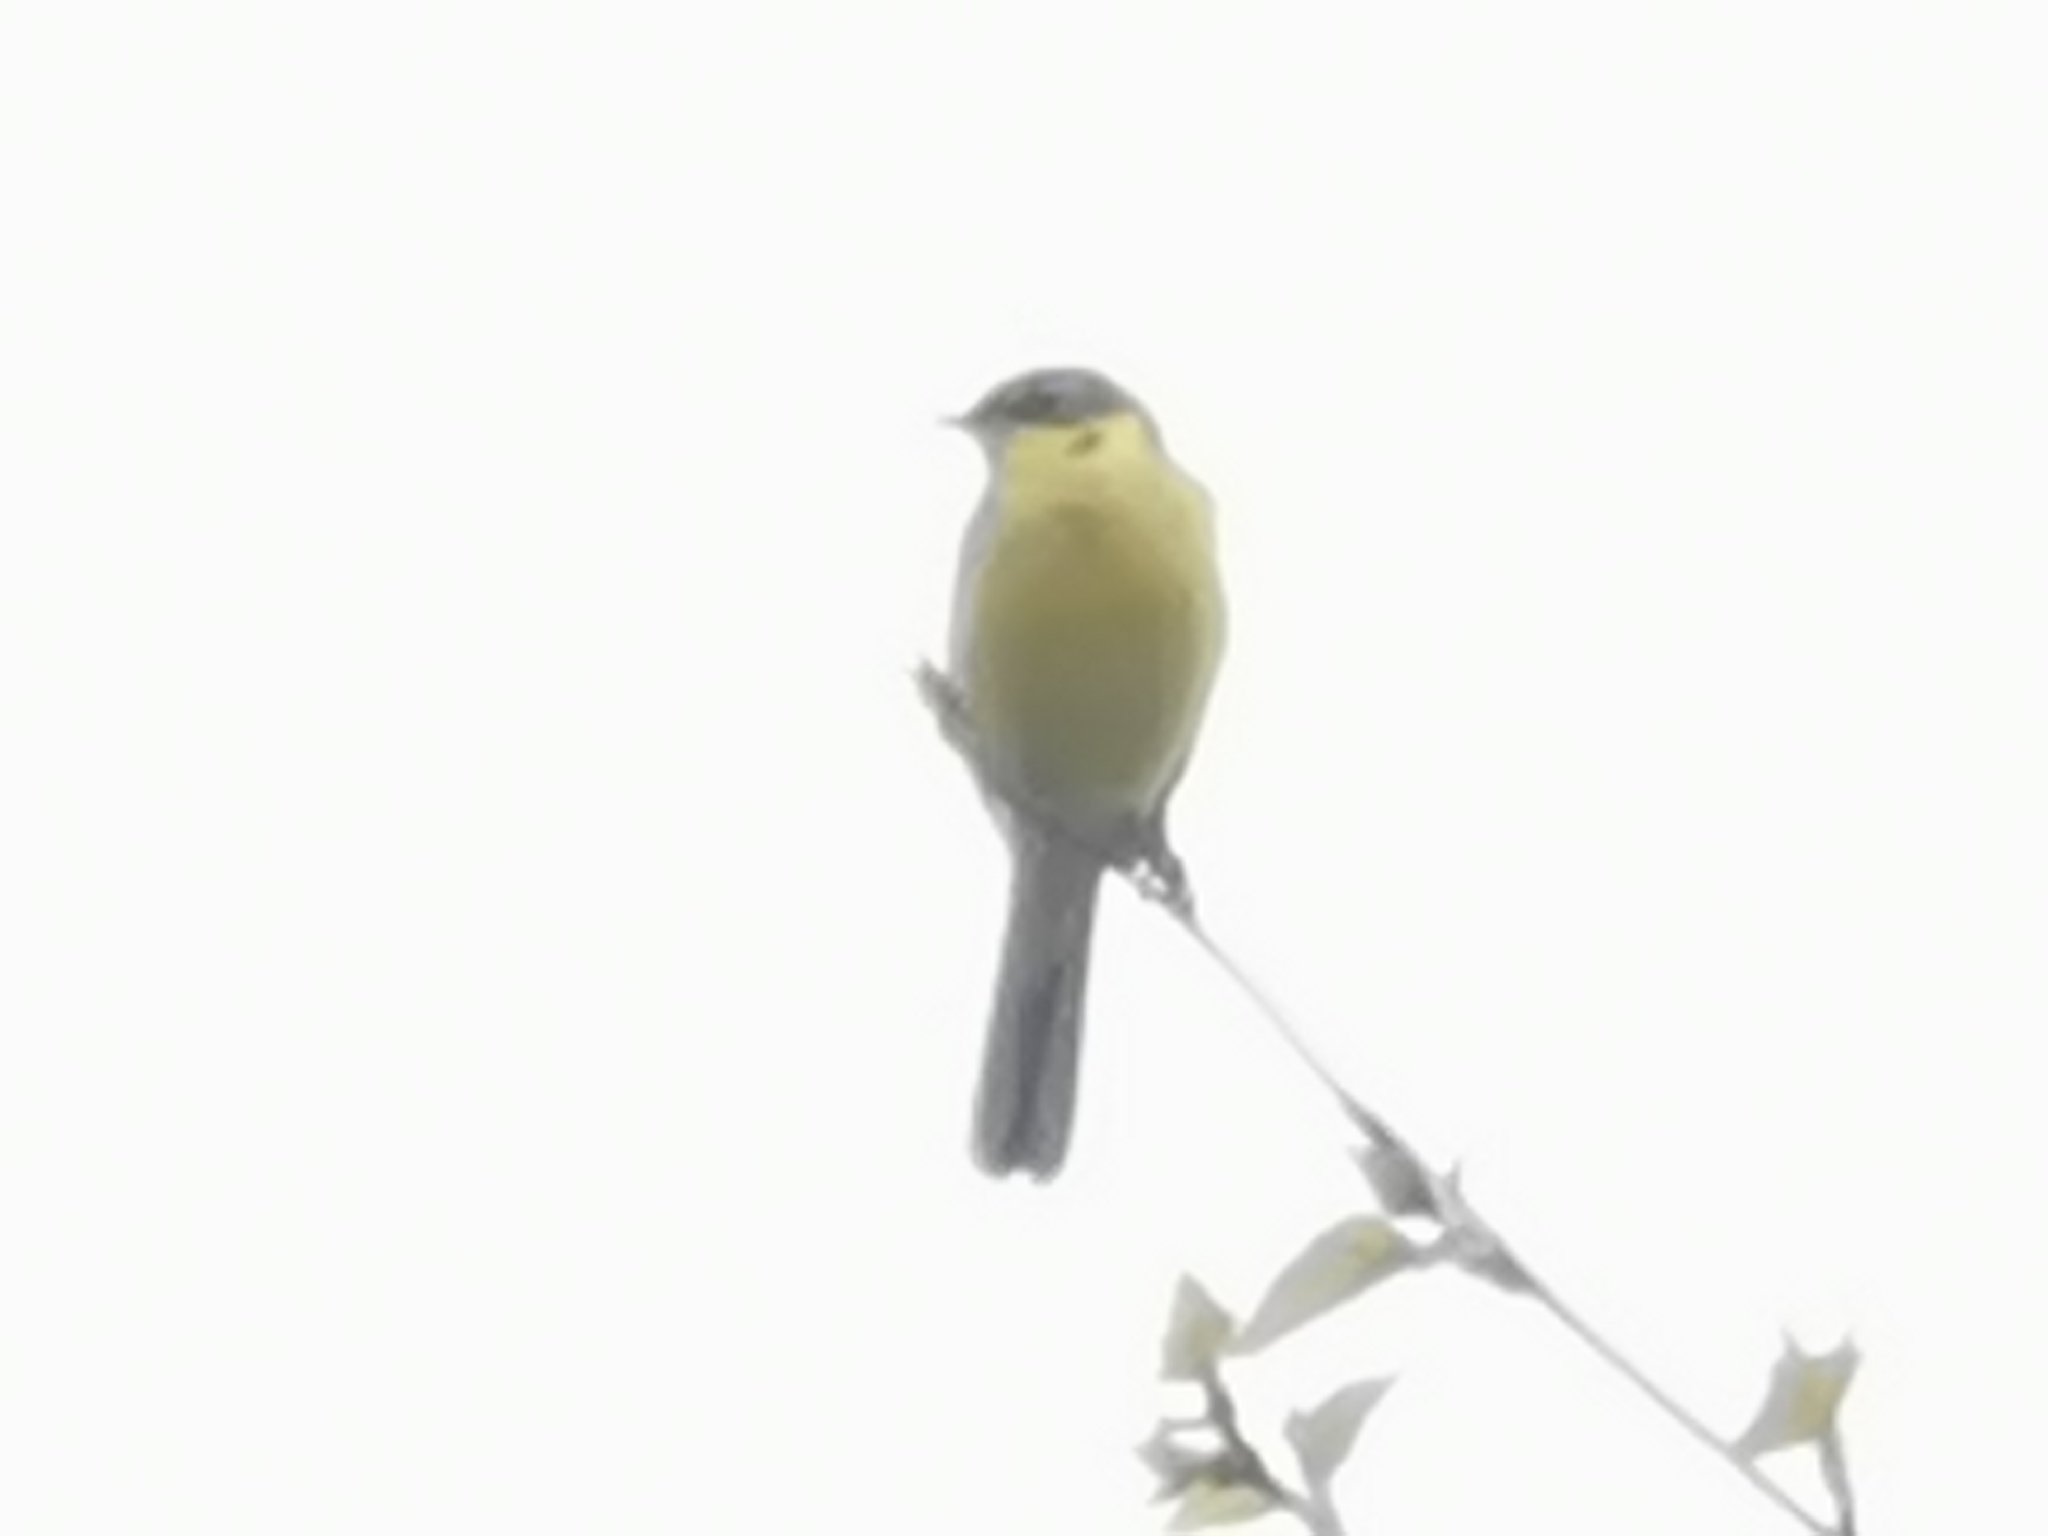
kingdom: Animalia
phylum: Chordata
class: Aves
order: Passeriformes
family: Motacillidae
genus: Motacilla
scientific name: Motacilla tschutschensis
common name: Eastern yellow wagtail
